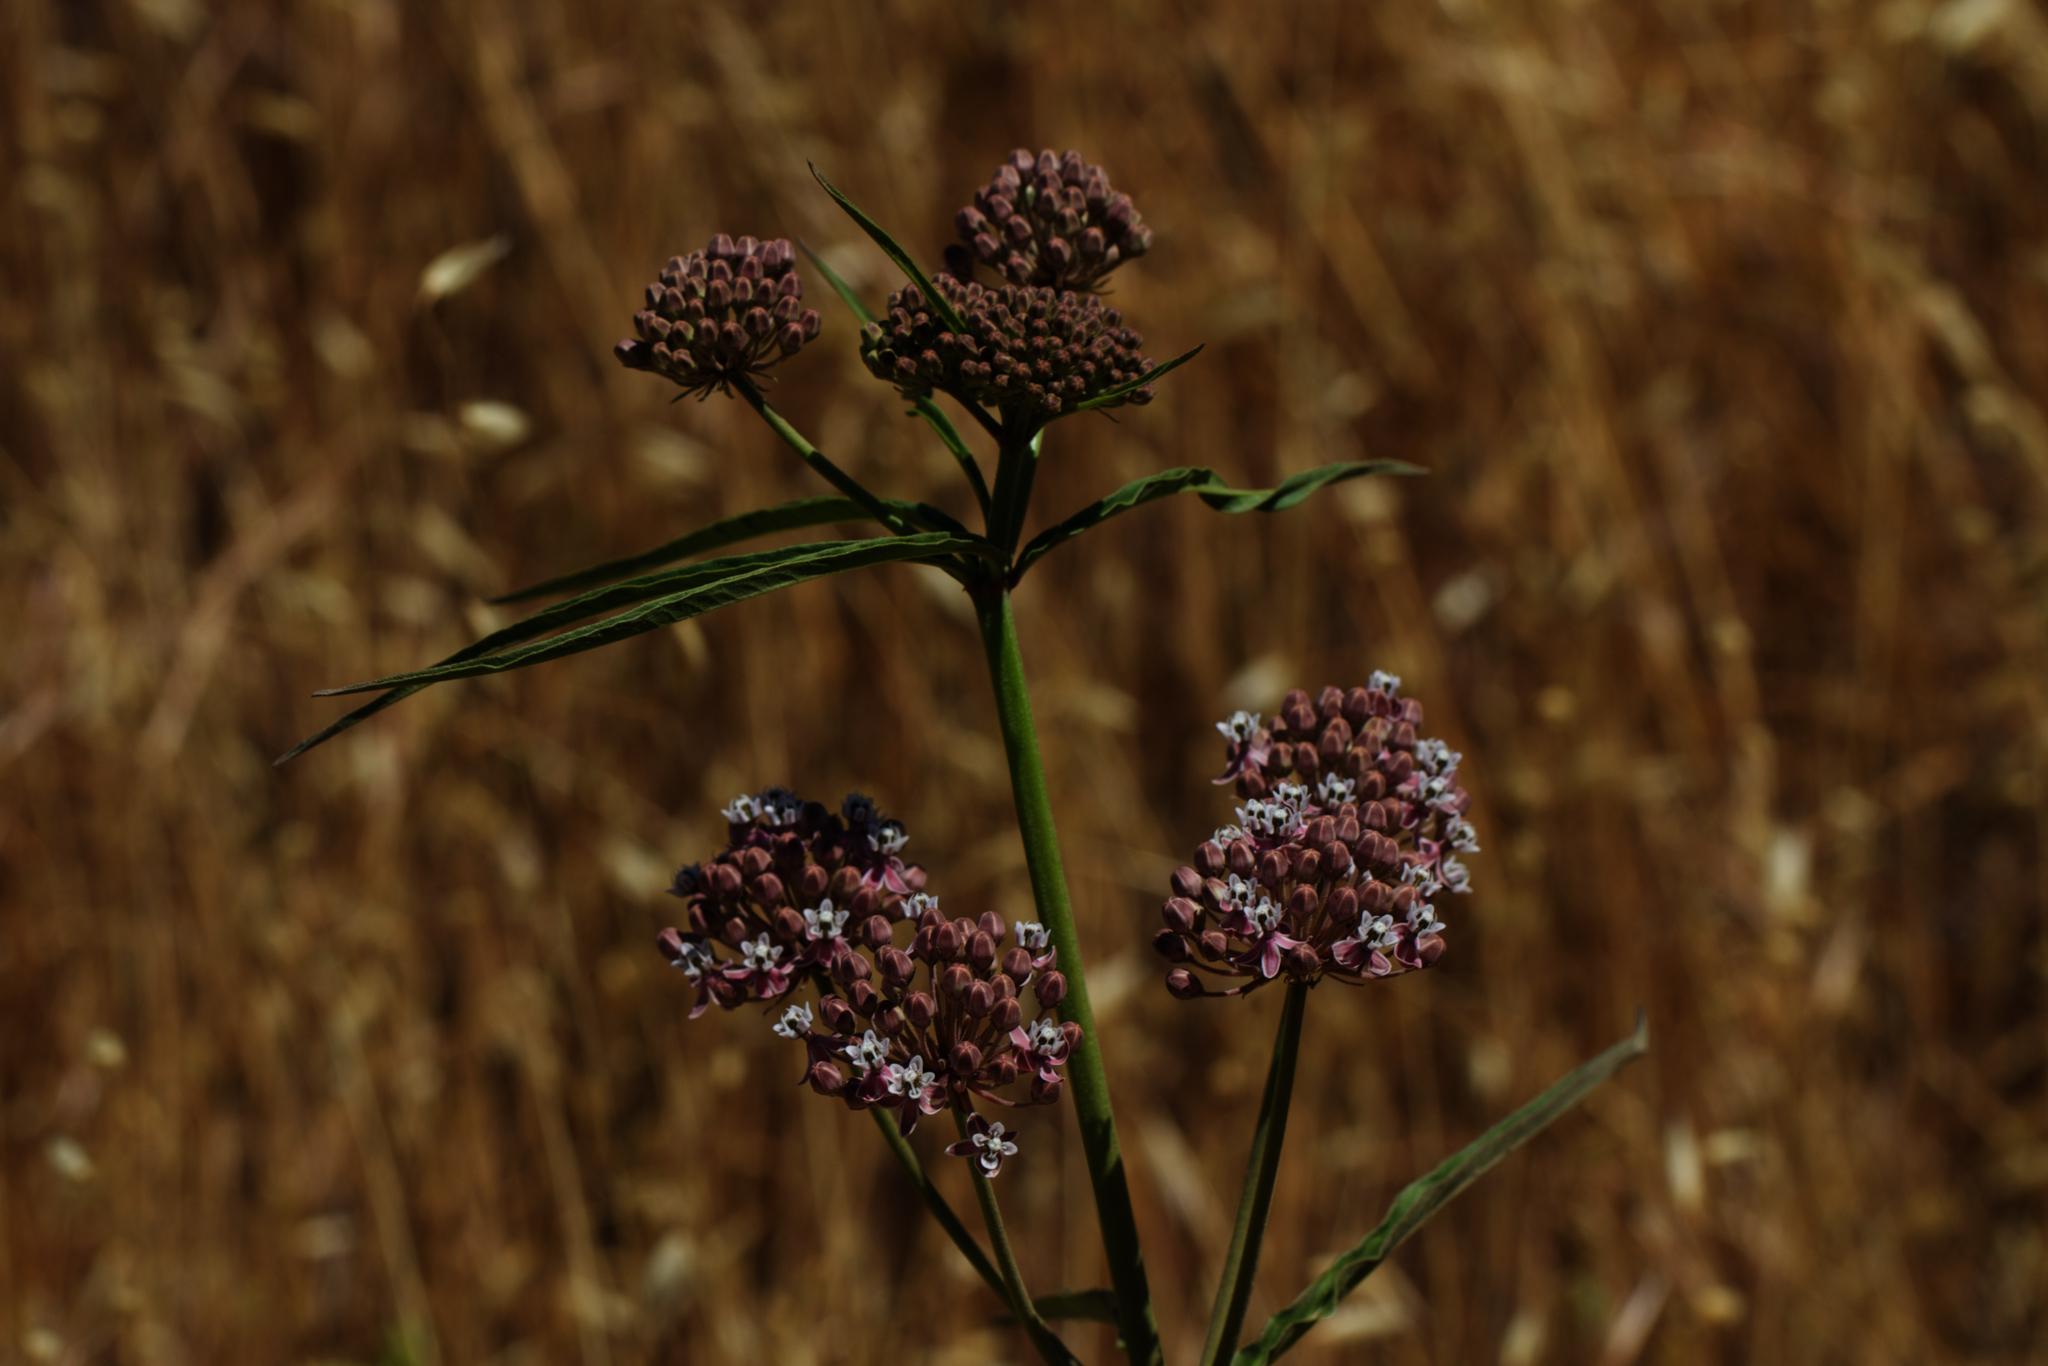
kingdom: Plantae
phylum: Tracheophyta
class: Magnoliopsida
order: Gentianales
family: Apocynaceae
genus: Asclepias
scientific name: Asclepias fascicularis
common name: Mexican milkweed
